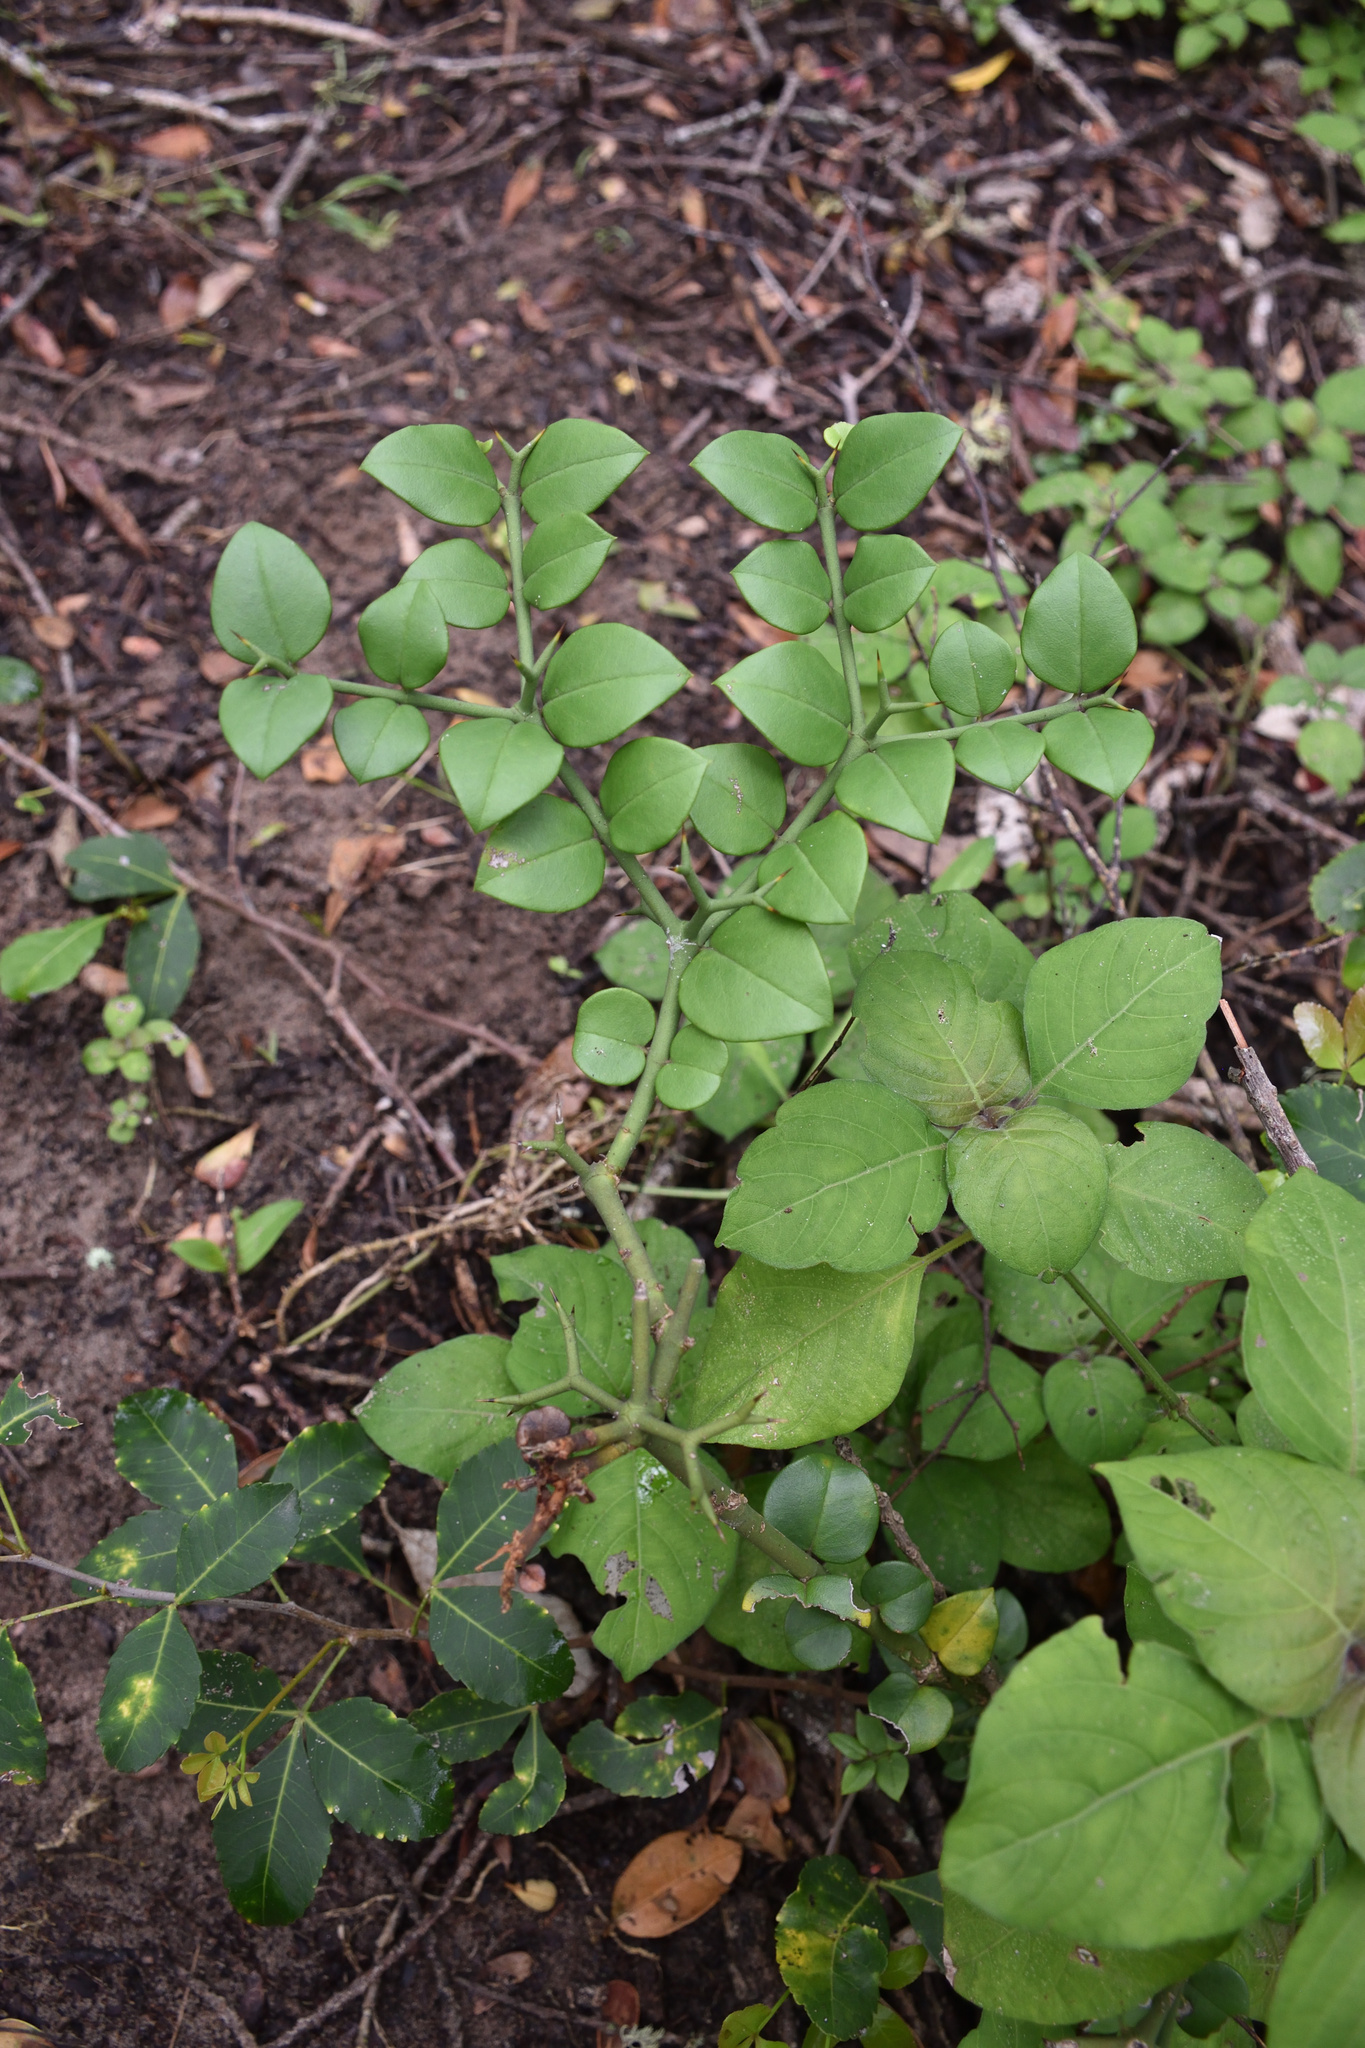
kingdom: Plantae
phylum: Tracheophyta
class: Magnoliopsida
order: Gentianales
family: Apocynaceae
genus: Carissa
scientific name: Carissa bispinosa
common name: Forest num-num
